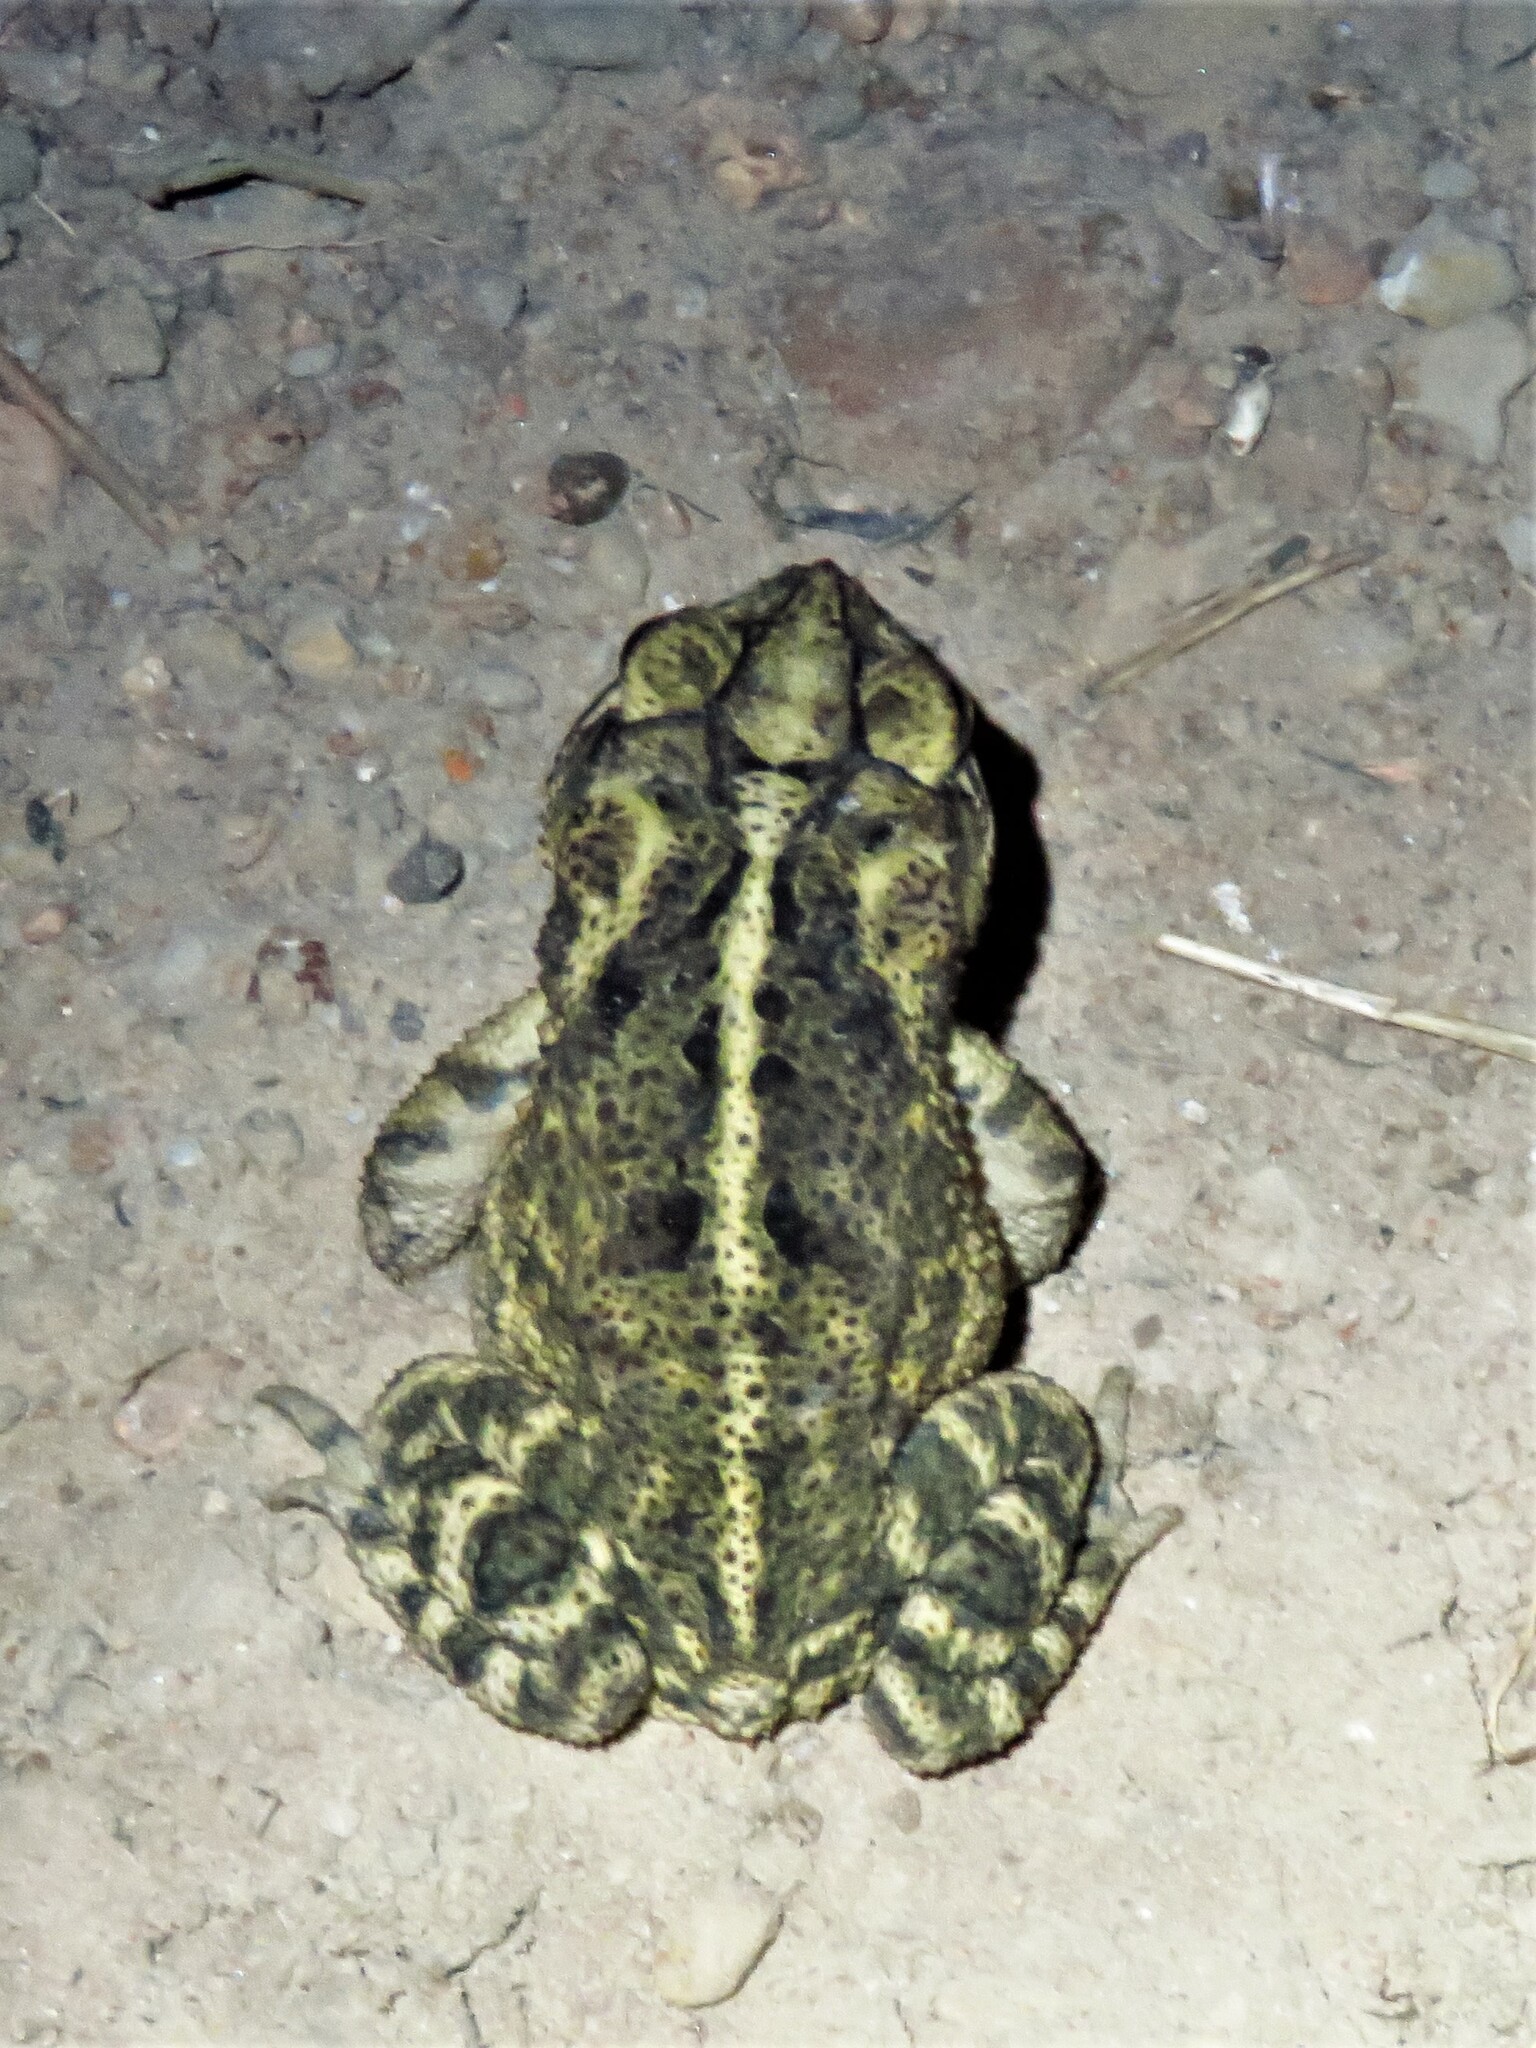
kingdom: Animalia
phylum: Chordata
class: Amphibia
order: Anura
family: Bufonidae
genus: Incilius
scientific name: Incilius nebulifer
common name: Gulf coast toad
